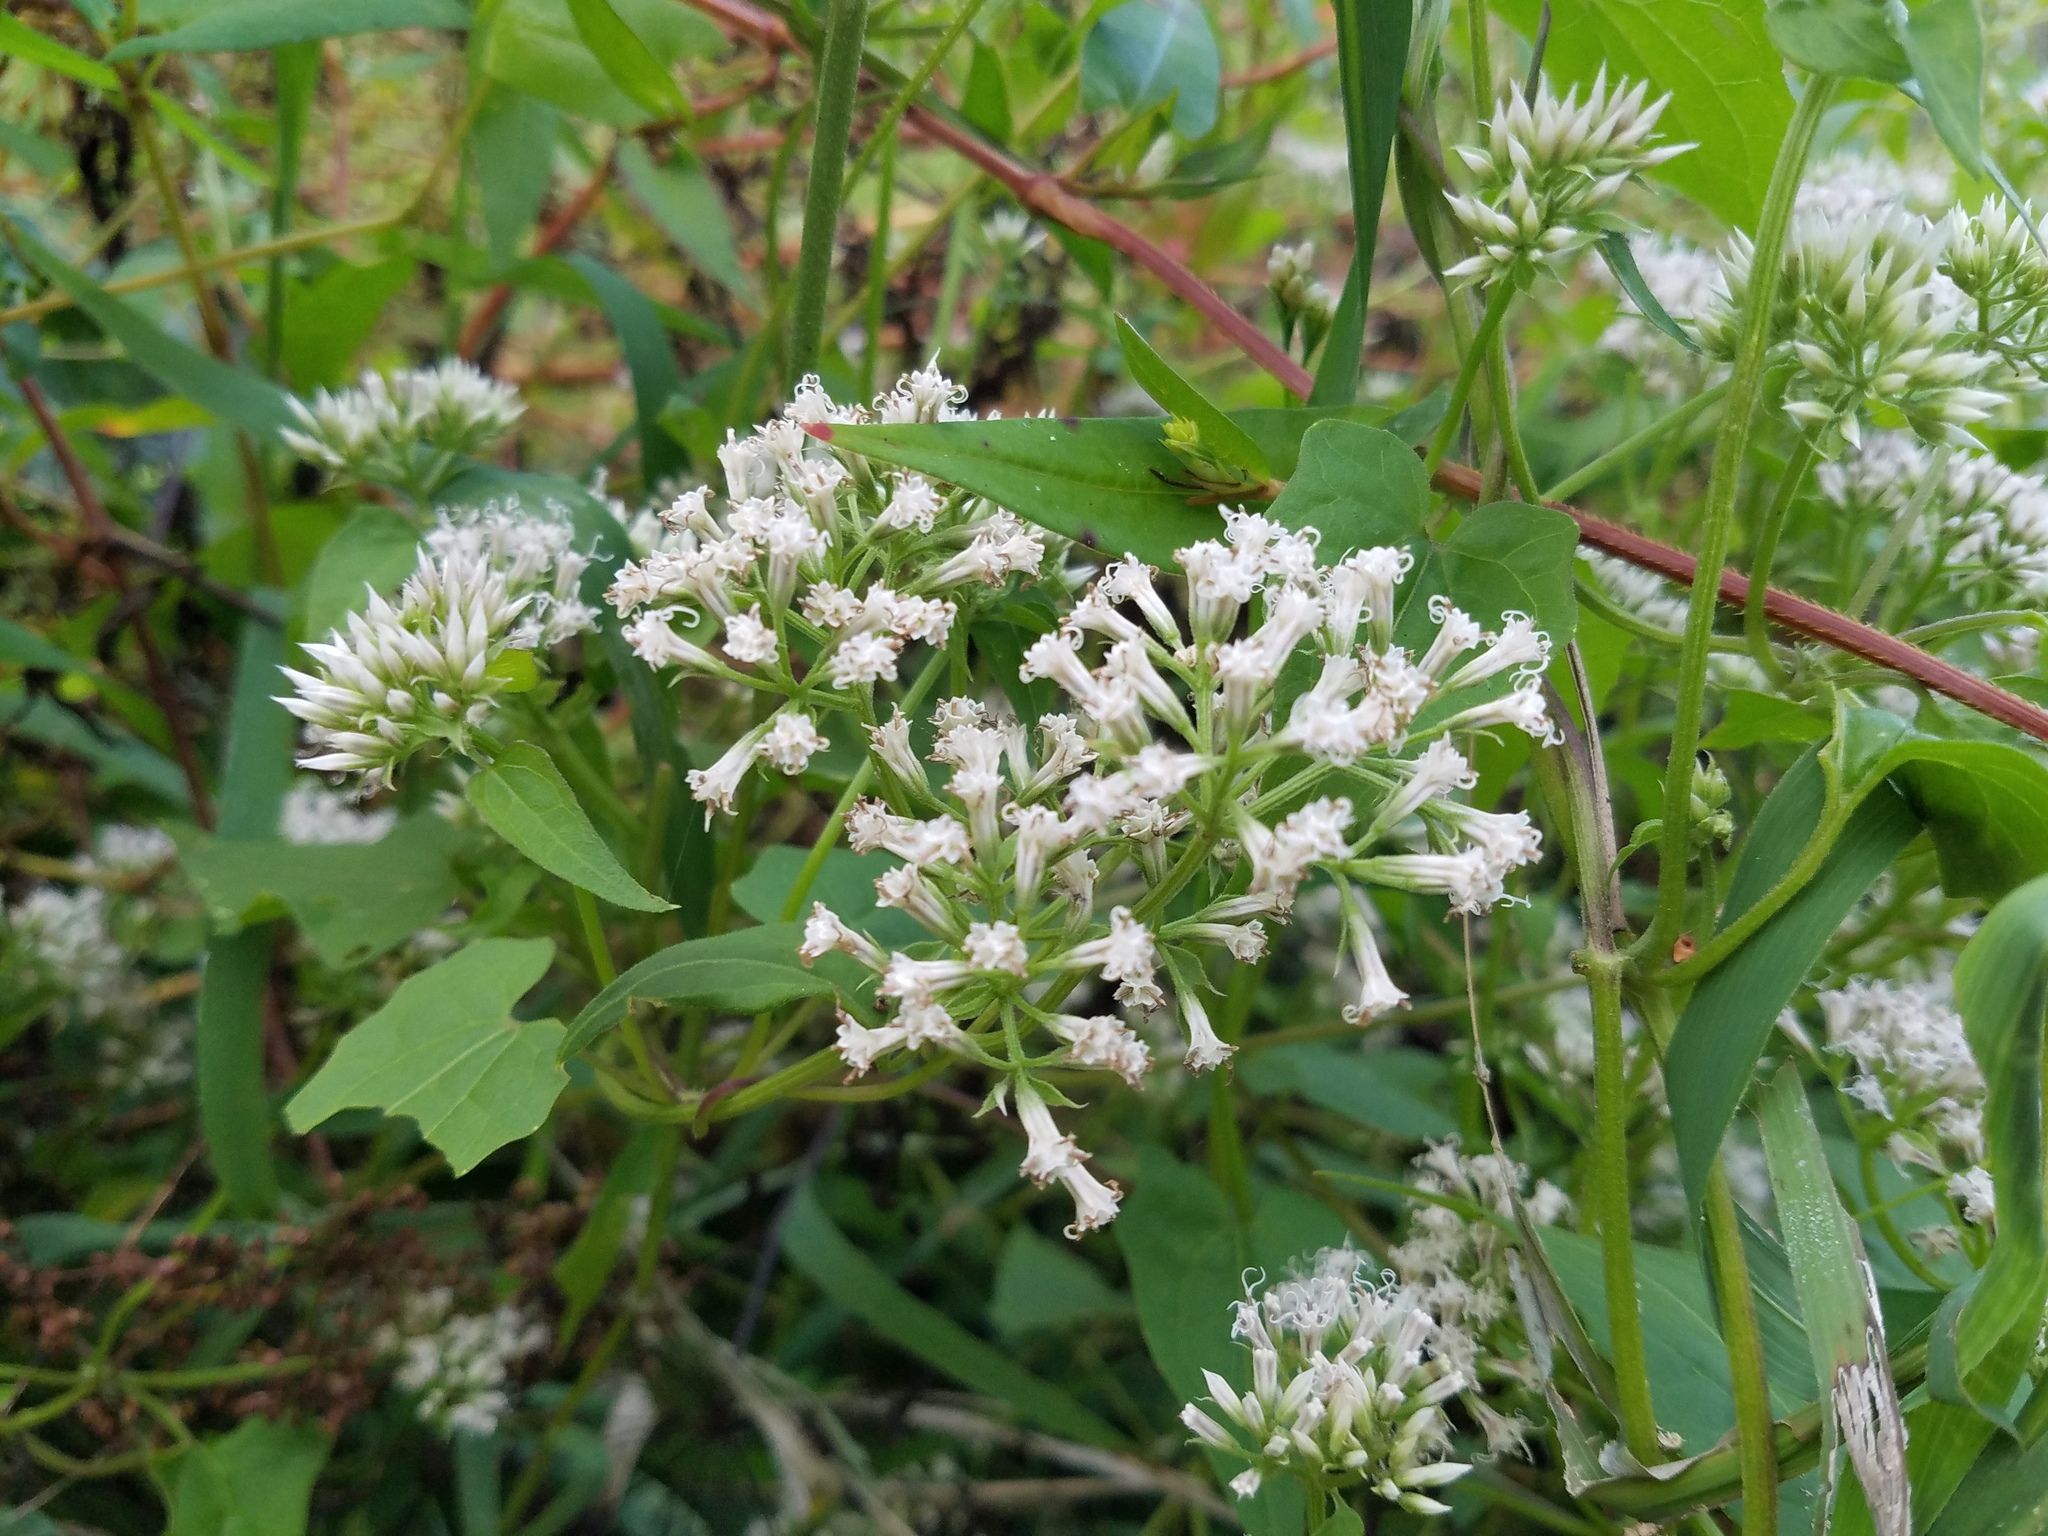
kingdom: Plantae
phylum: Tracheophyta
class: Magnoliopsida
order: Asterales
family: Asteraceae
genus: Mikania
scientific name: Mikania scandens
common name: Climbing hempvine
